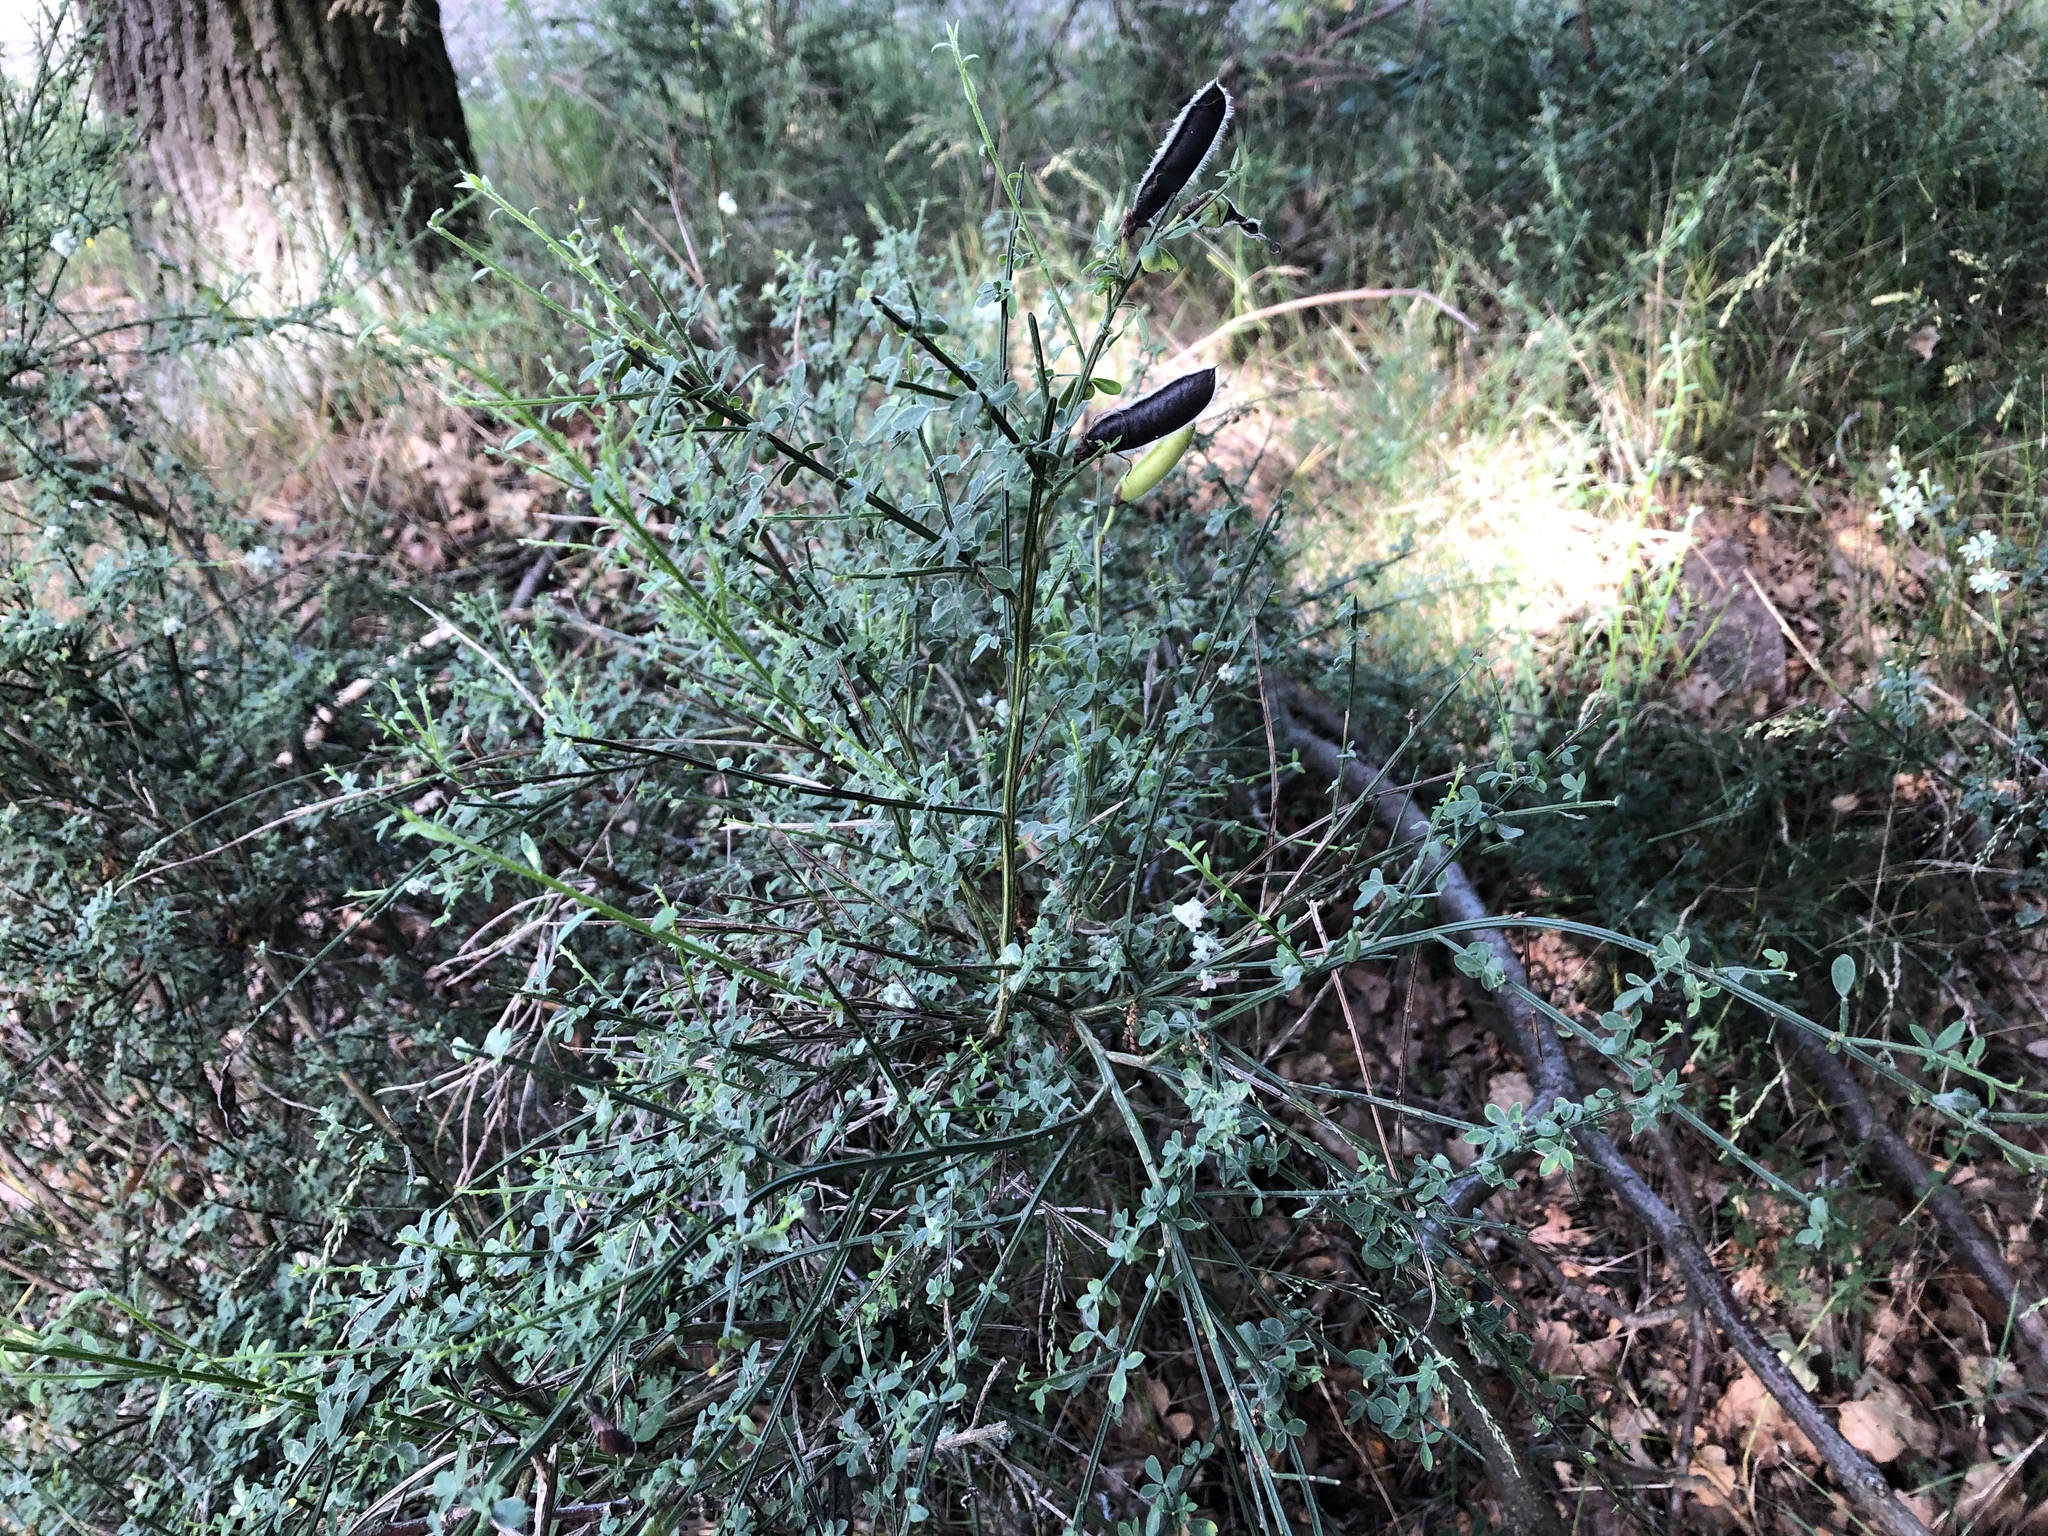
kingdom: Plantae
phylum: Tracheophyta
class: Magnoliopsida
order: Fabales
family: Fabaceae
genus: Cytisus
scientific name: Cytisus scoparius
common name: Scotch broom
